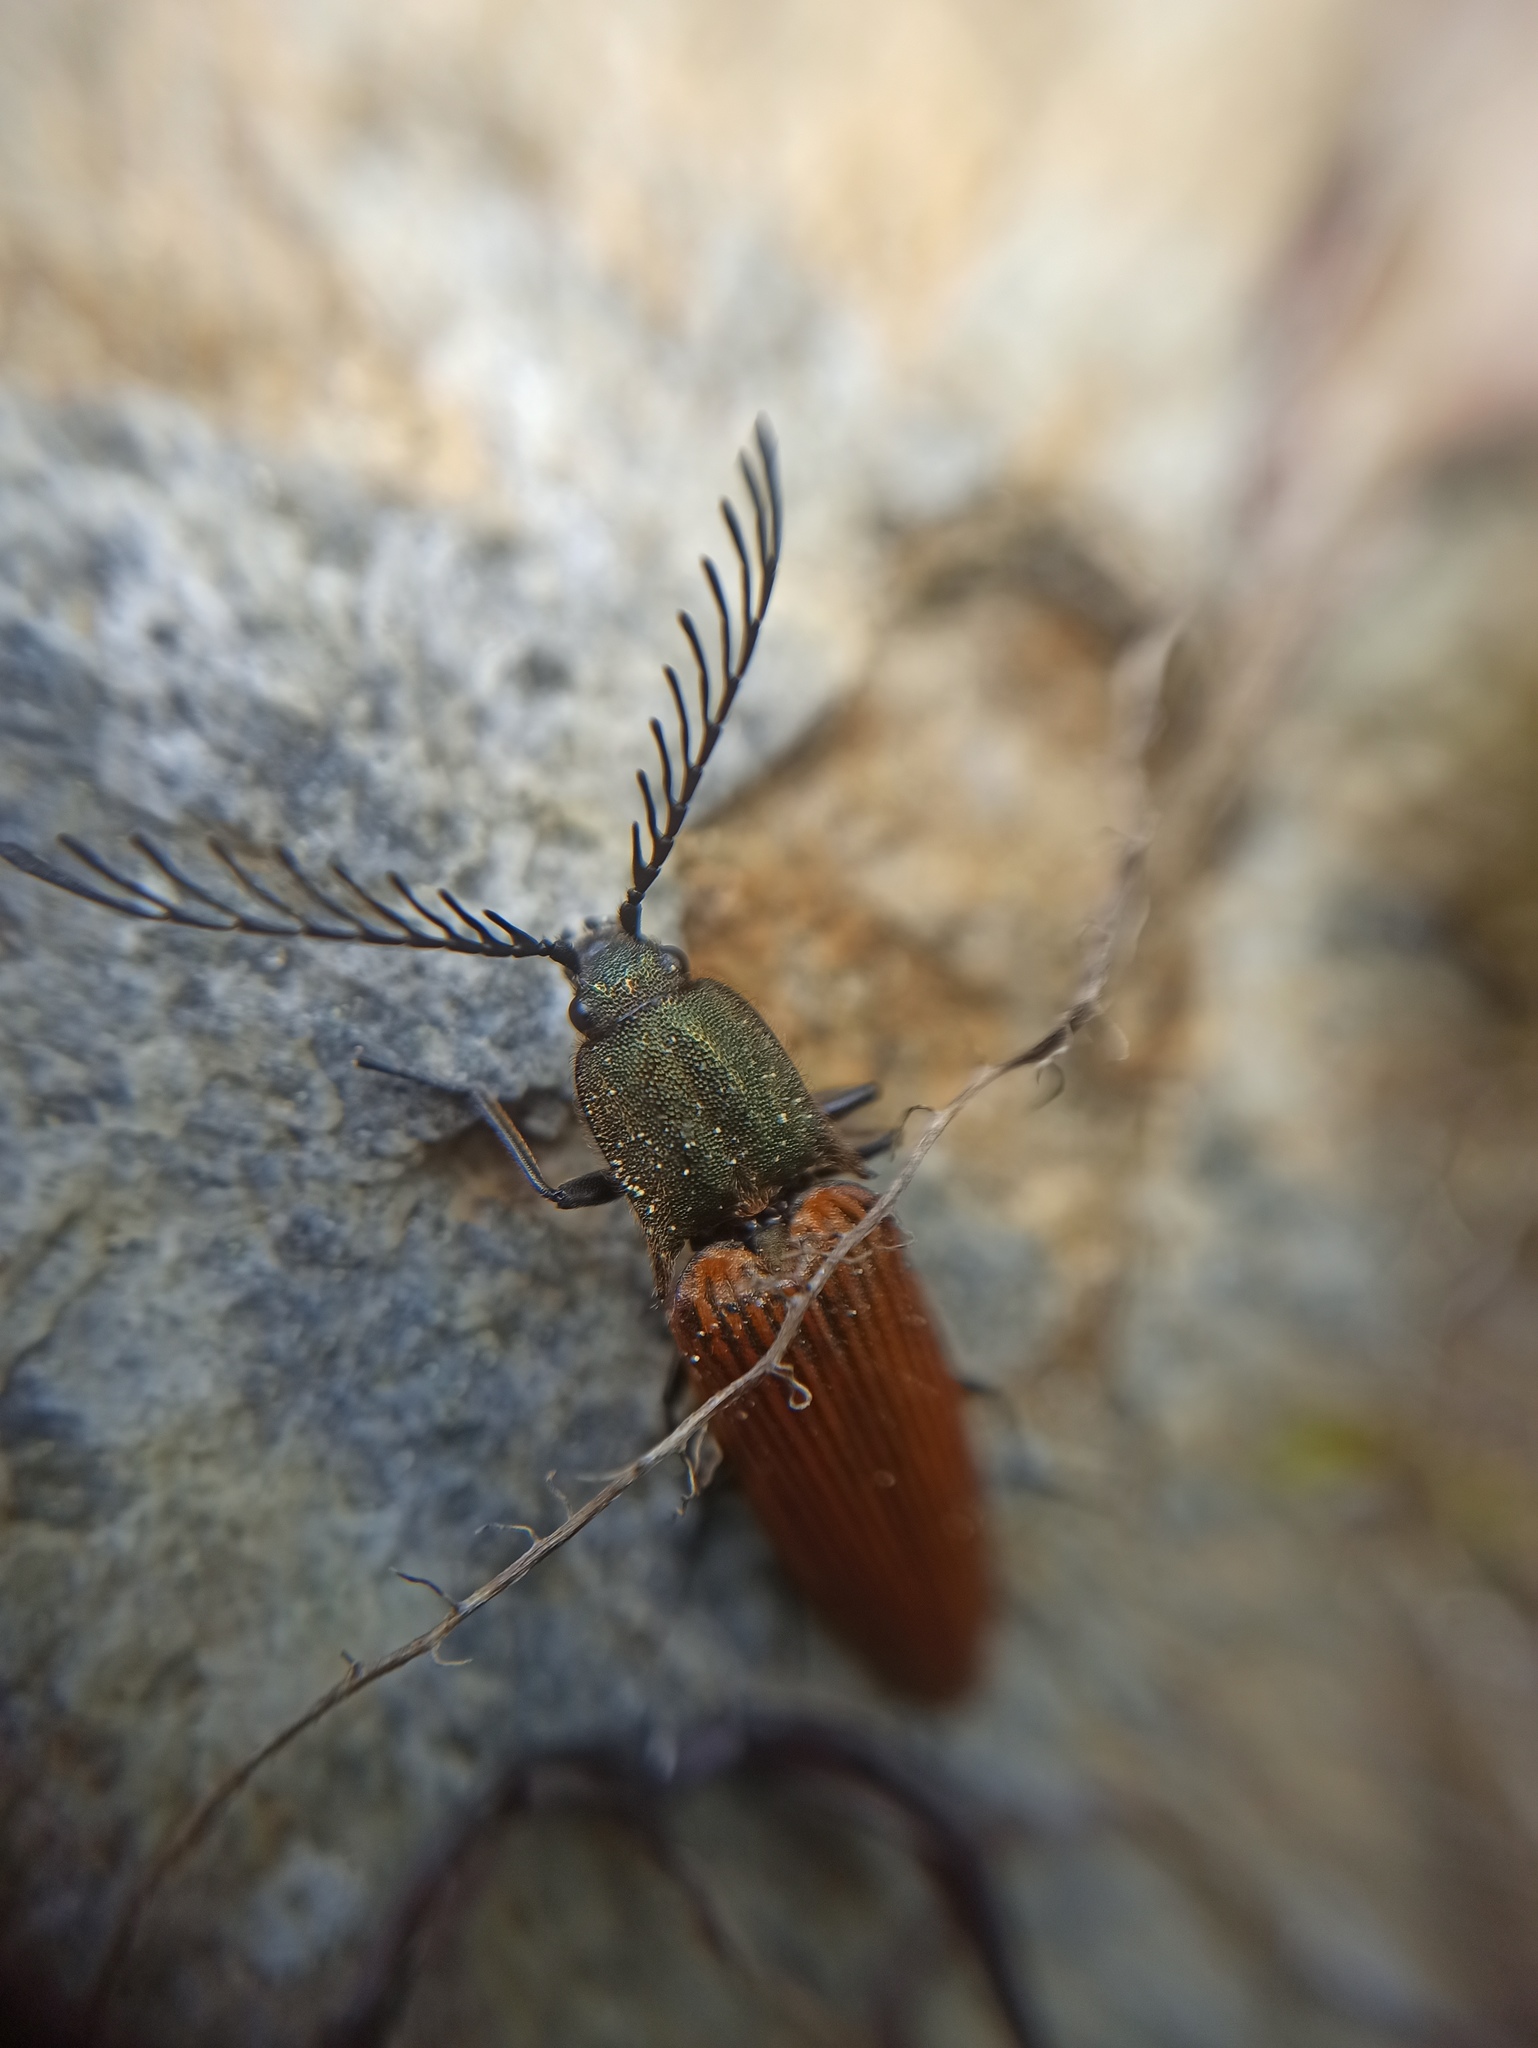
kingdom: Animalia
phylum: Arthropoda
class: Insecta
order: Coleoptera
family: Elateridae
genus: Ctenicera
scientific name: Ctenicera virens
